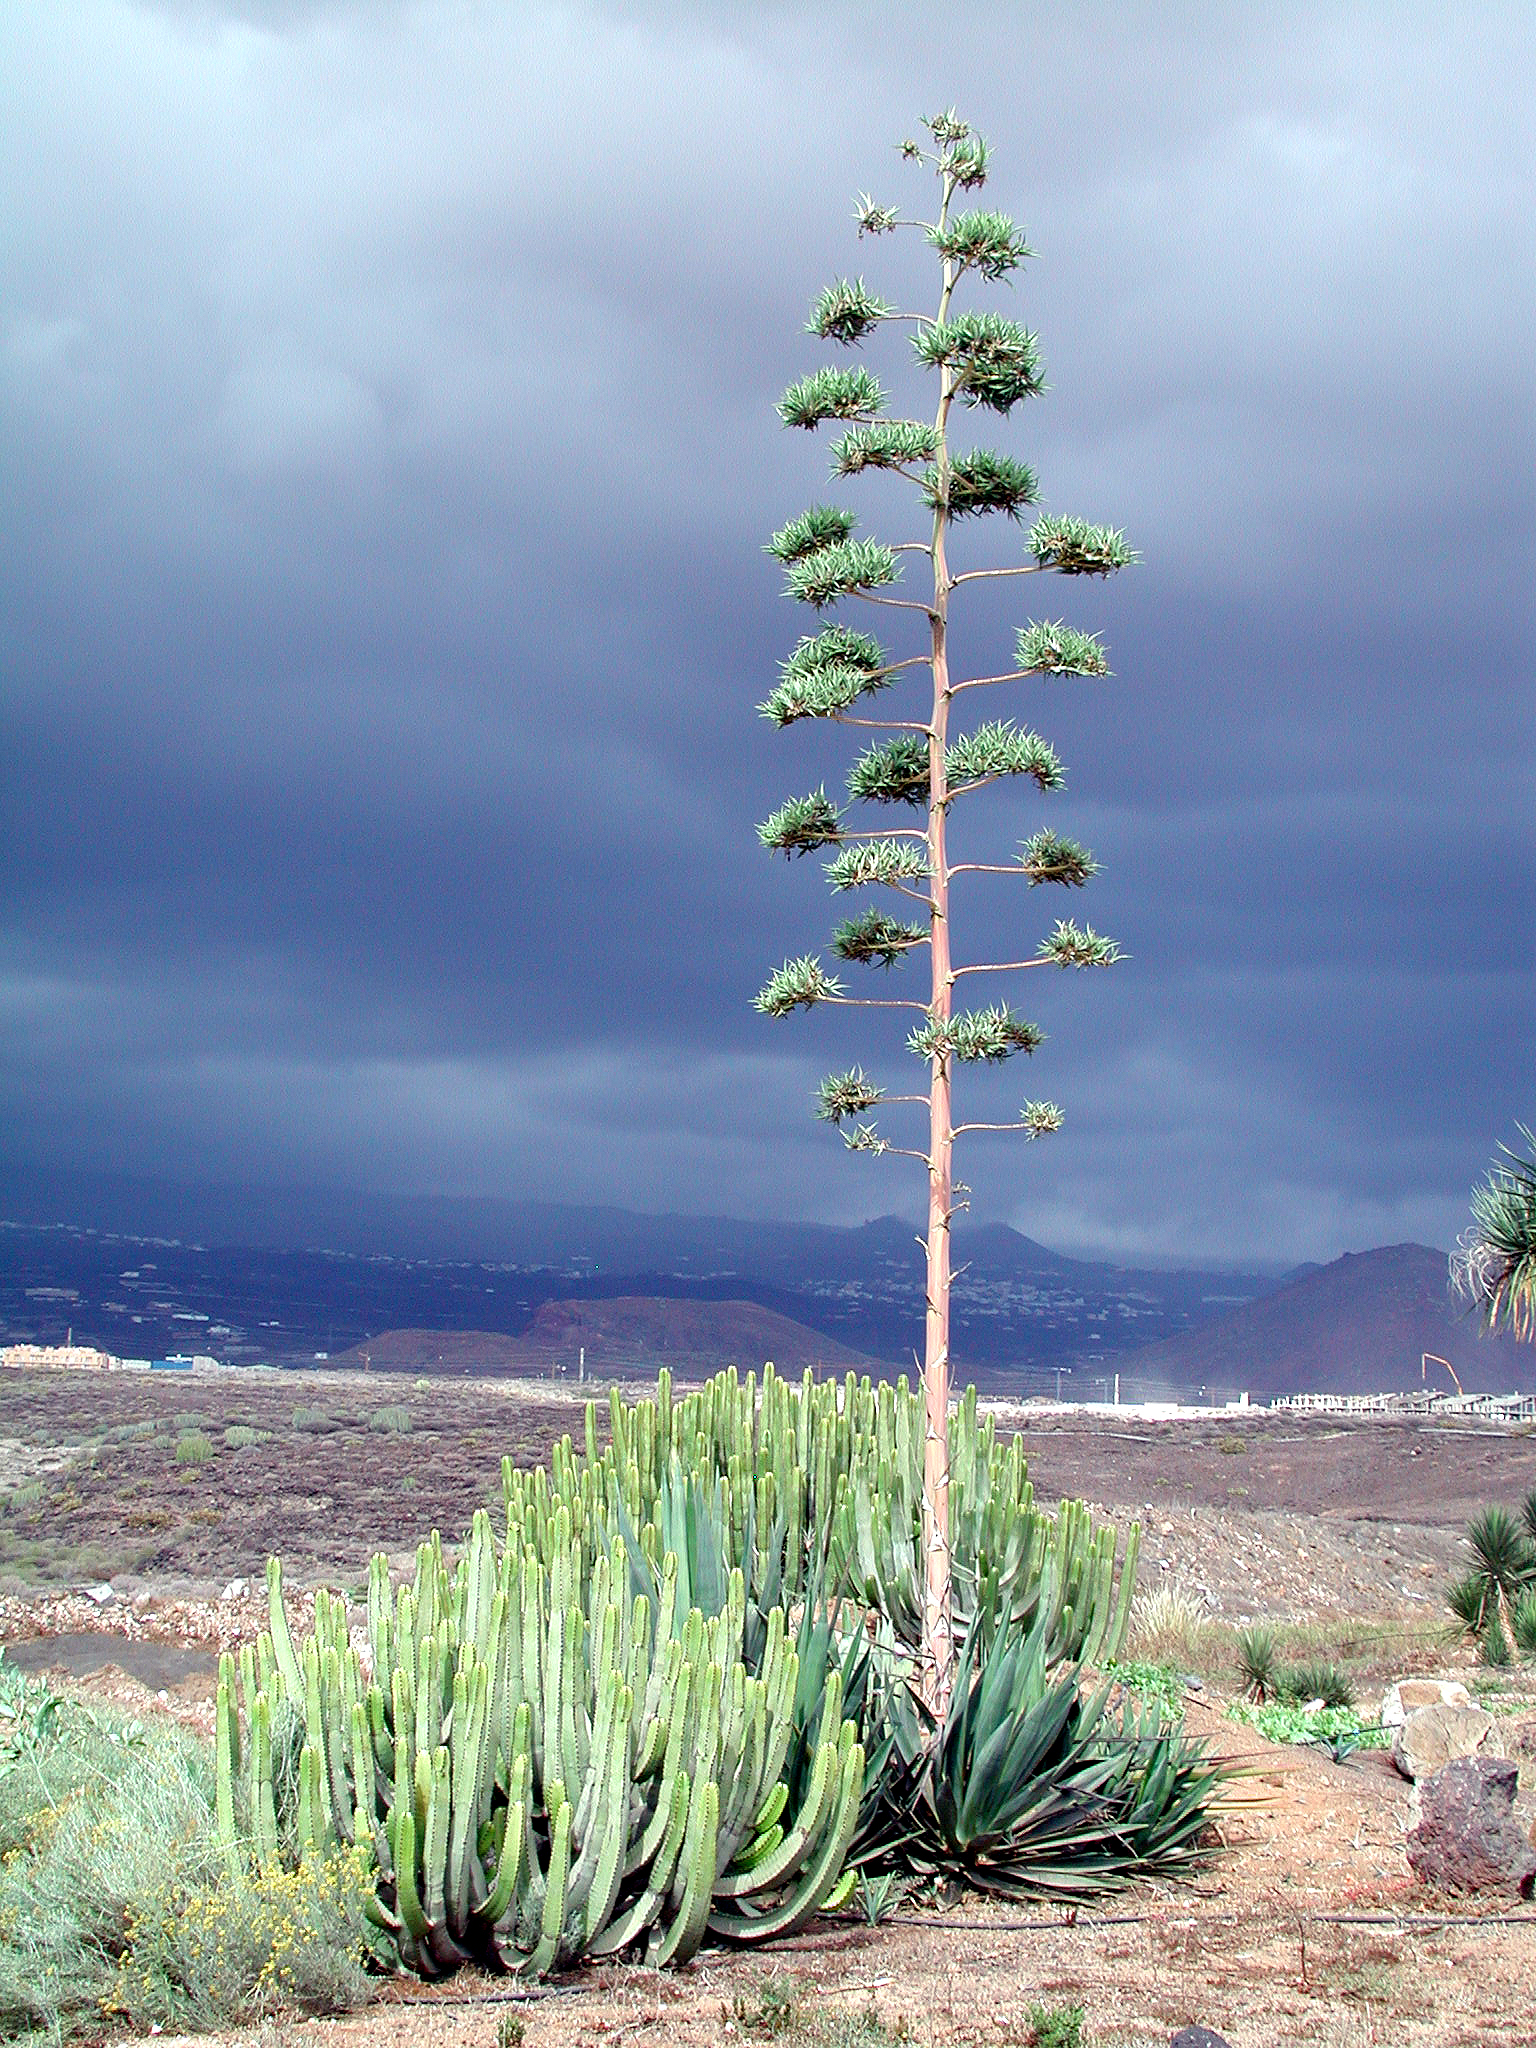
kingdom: Plantae
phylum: Tracheophyta
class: Magnoliopsida
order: Malpighiales
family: Euphorbiaceae
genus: Euphorbia
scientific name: Euphorbia canariensis
